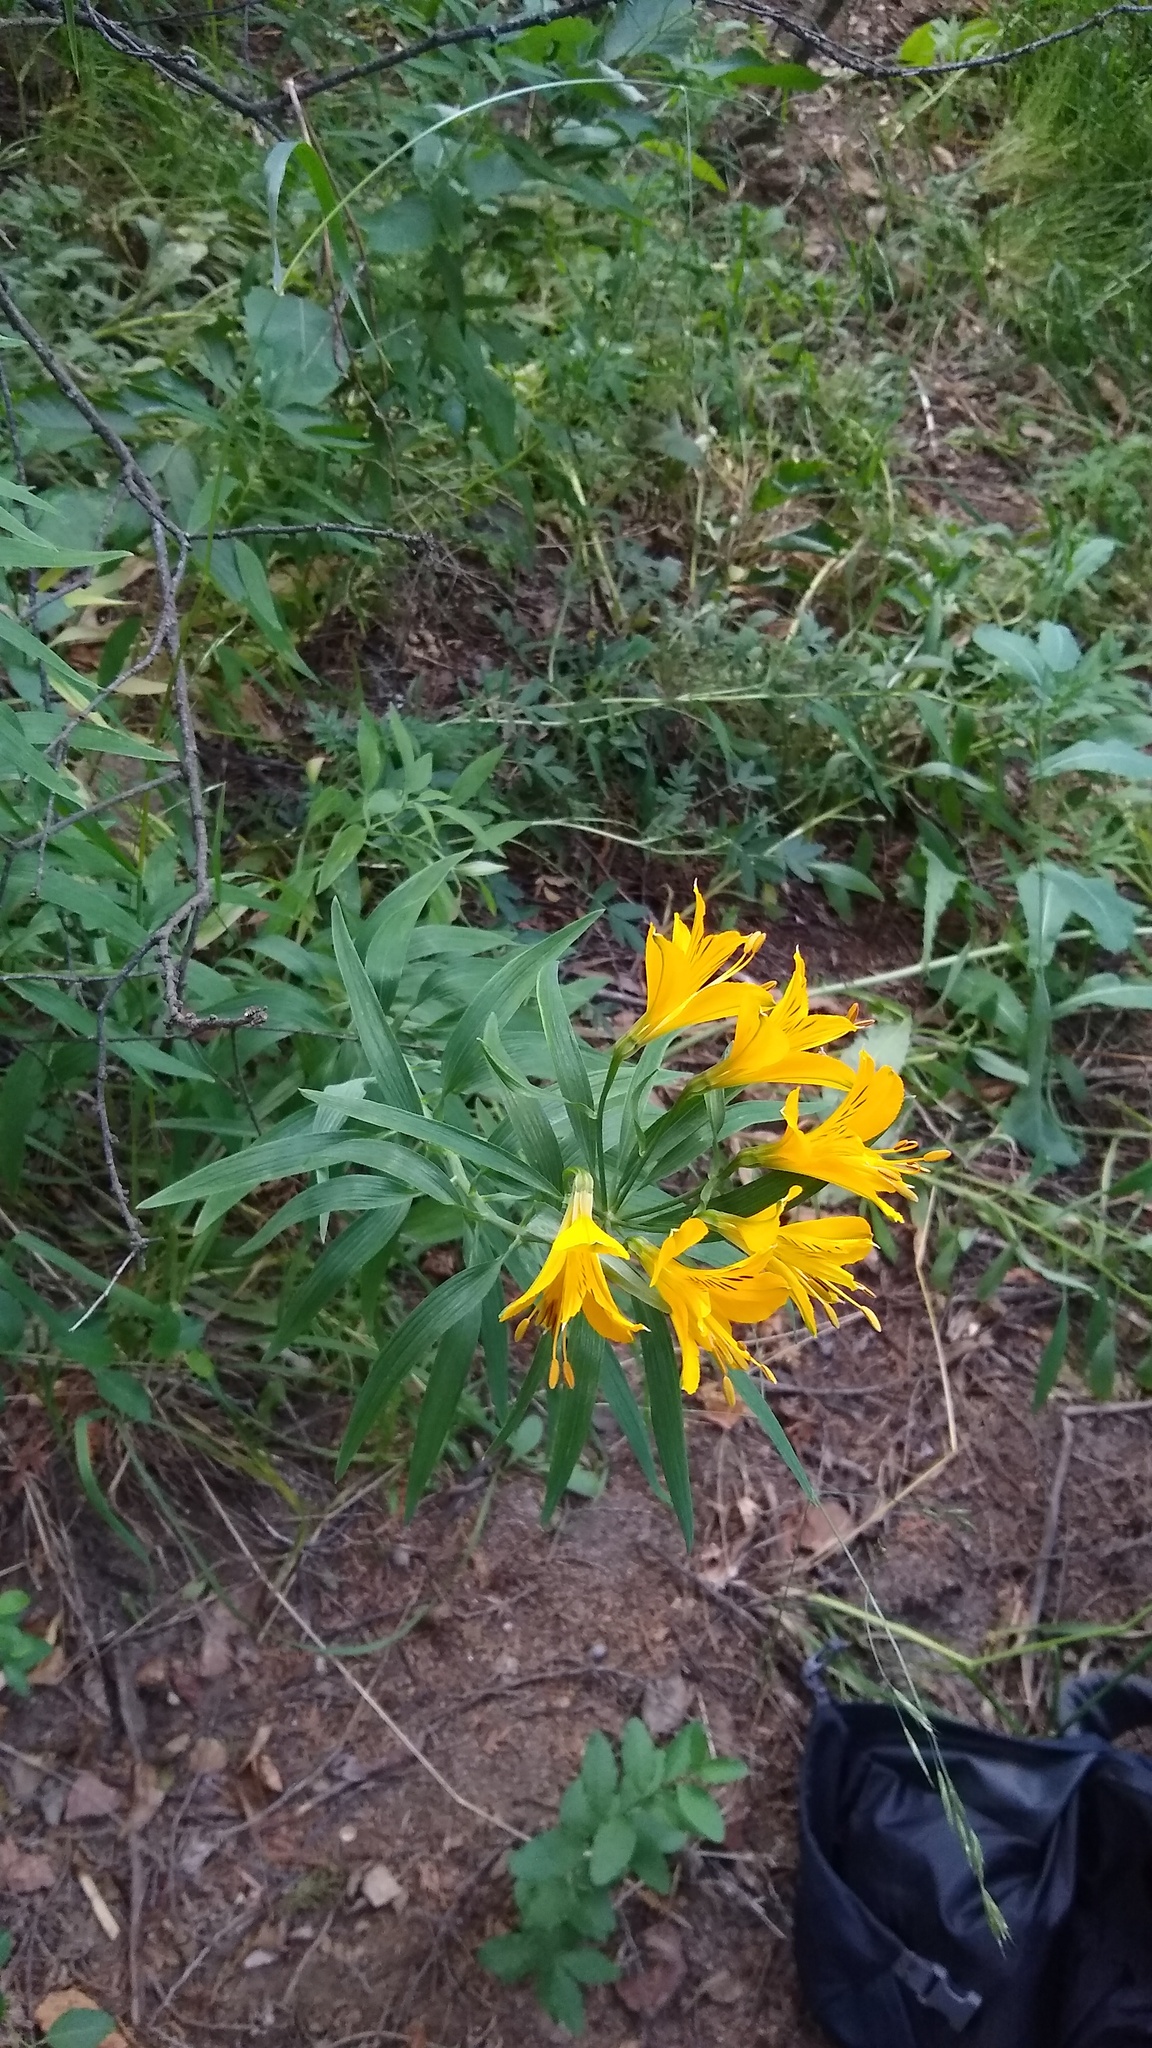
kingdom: Plantae
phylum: Tracheophyta
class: Liliopsida
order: Liliales
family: Alstroemeriaceae
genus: Alstroemeria
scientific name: Alstroemeria aurea
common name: Peruvian lily
